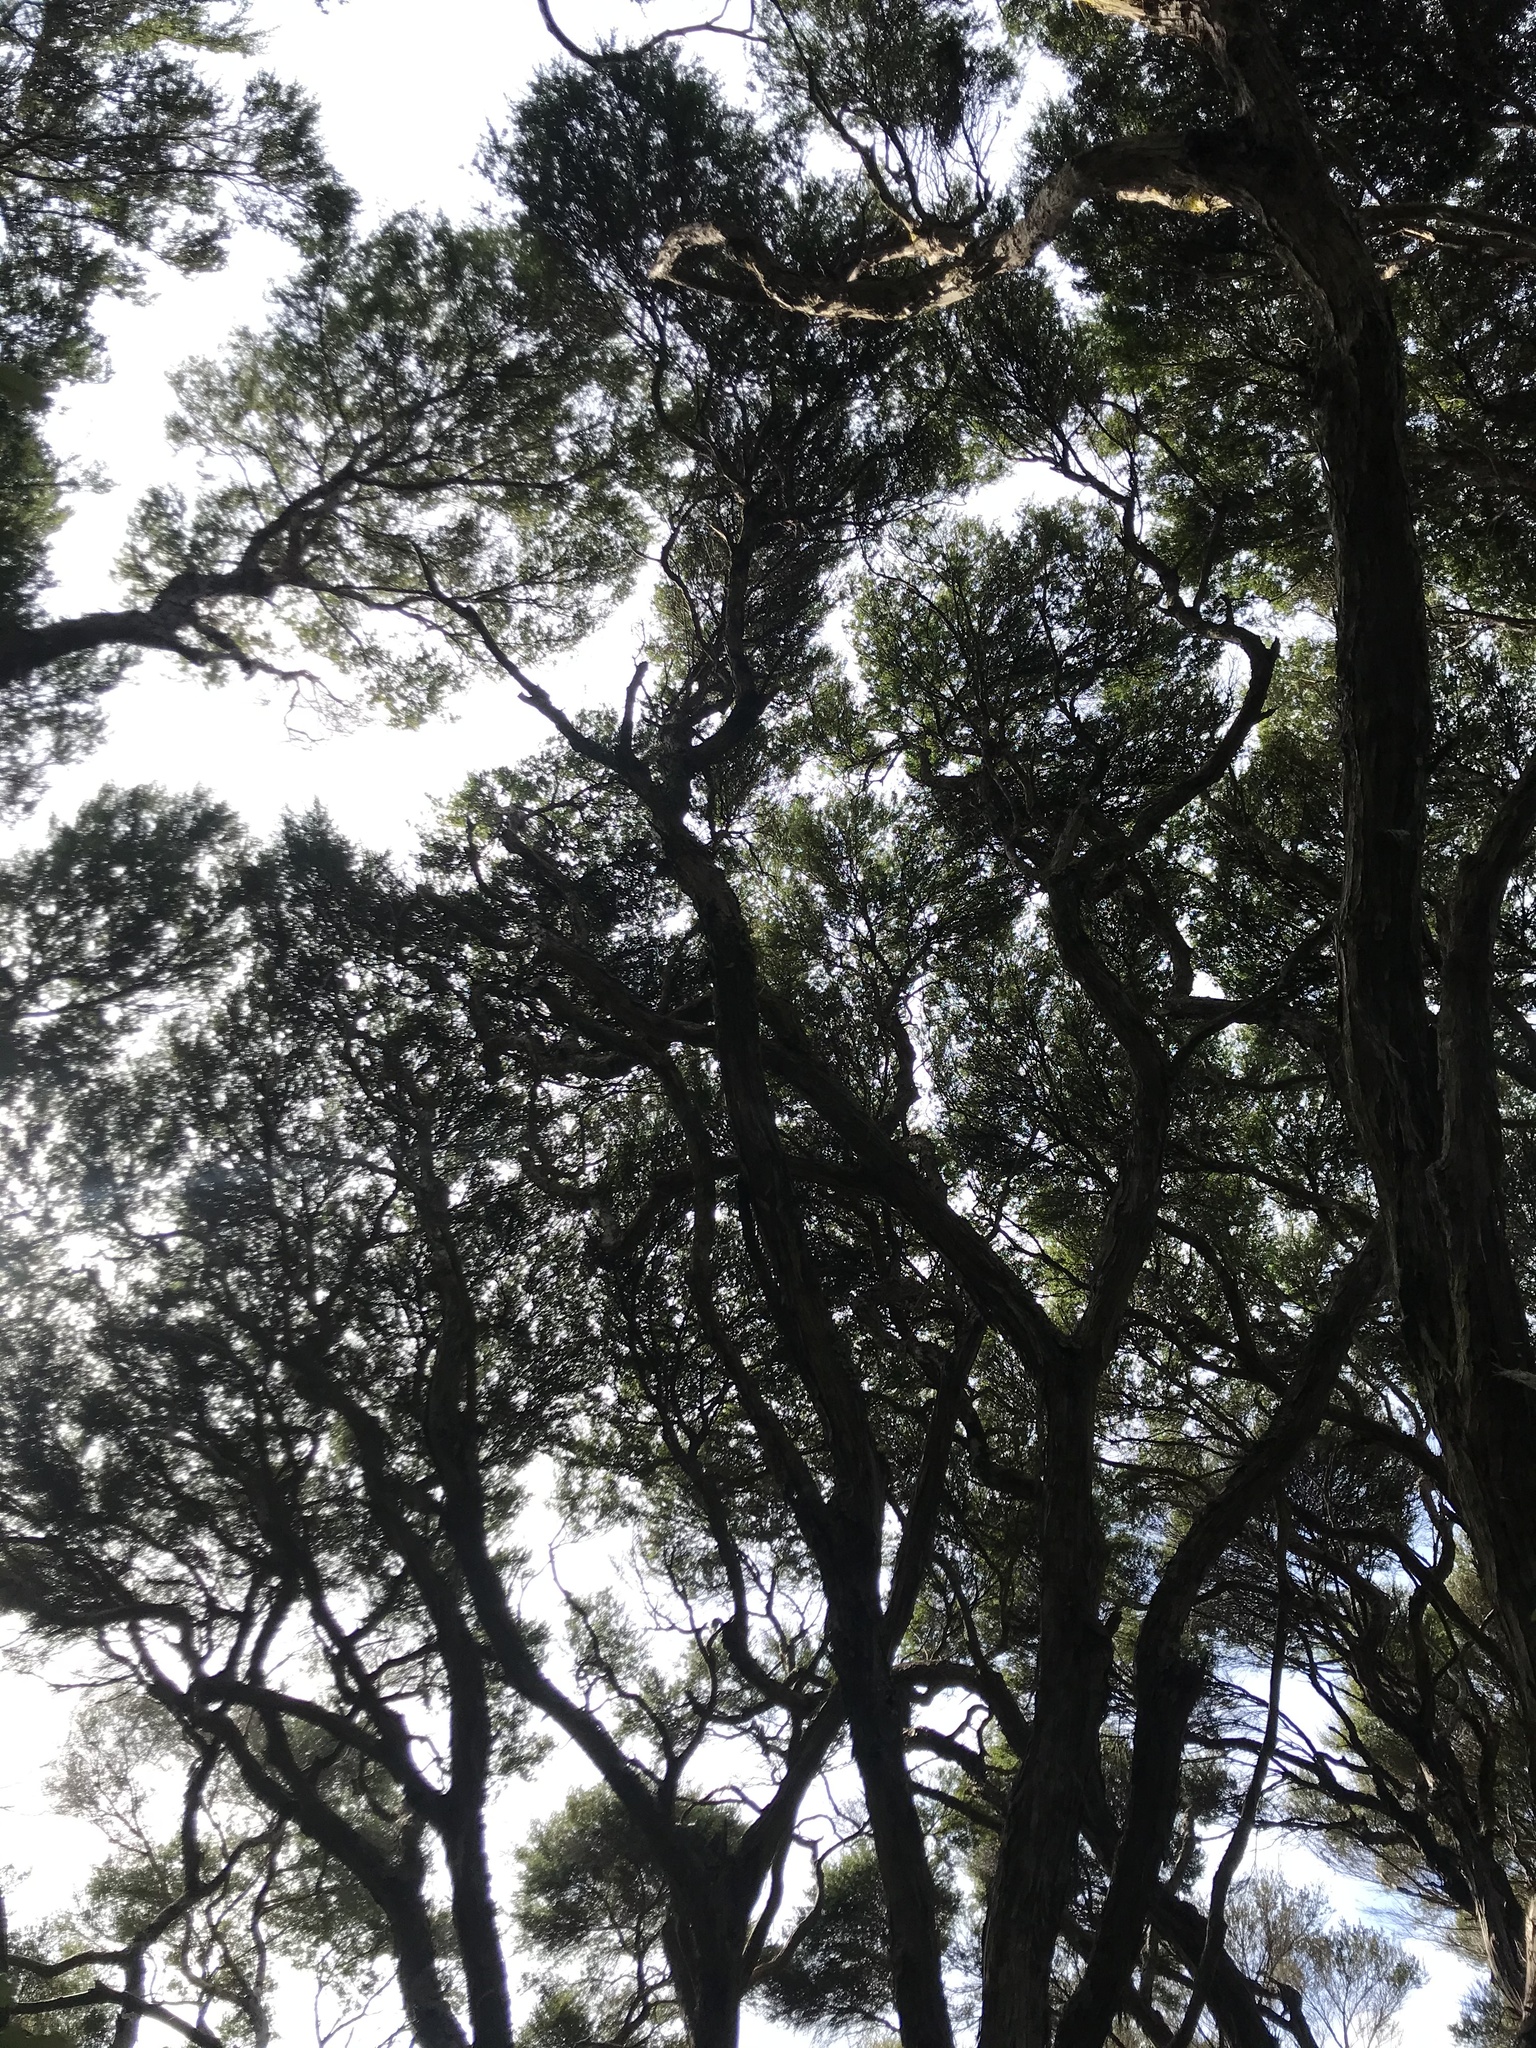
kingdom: Plantae
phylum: Tracheophyta
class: Magnoliopsida
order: Myrtales
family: Myrtaceae
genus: Kunzea
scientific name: Kunzea ericoides
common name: Burgan
